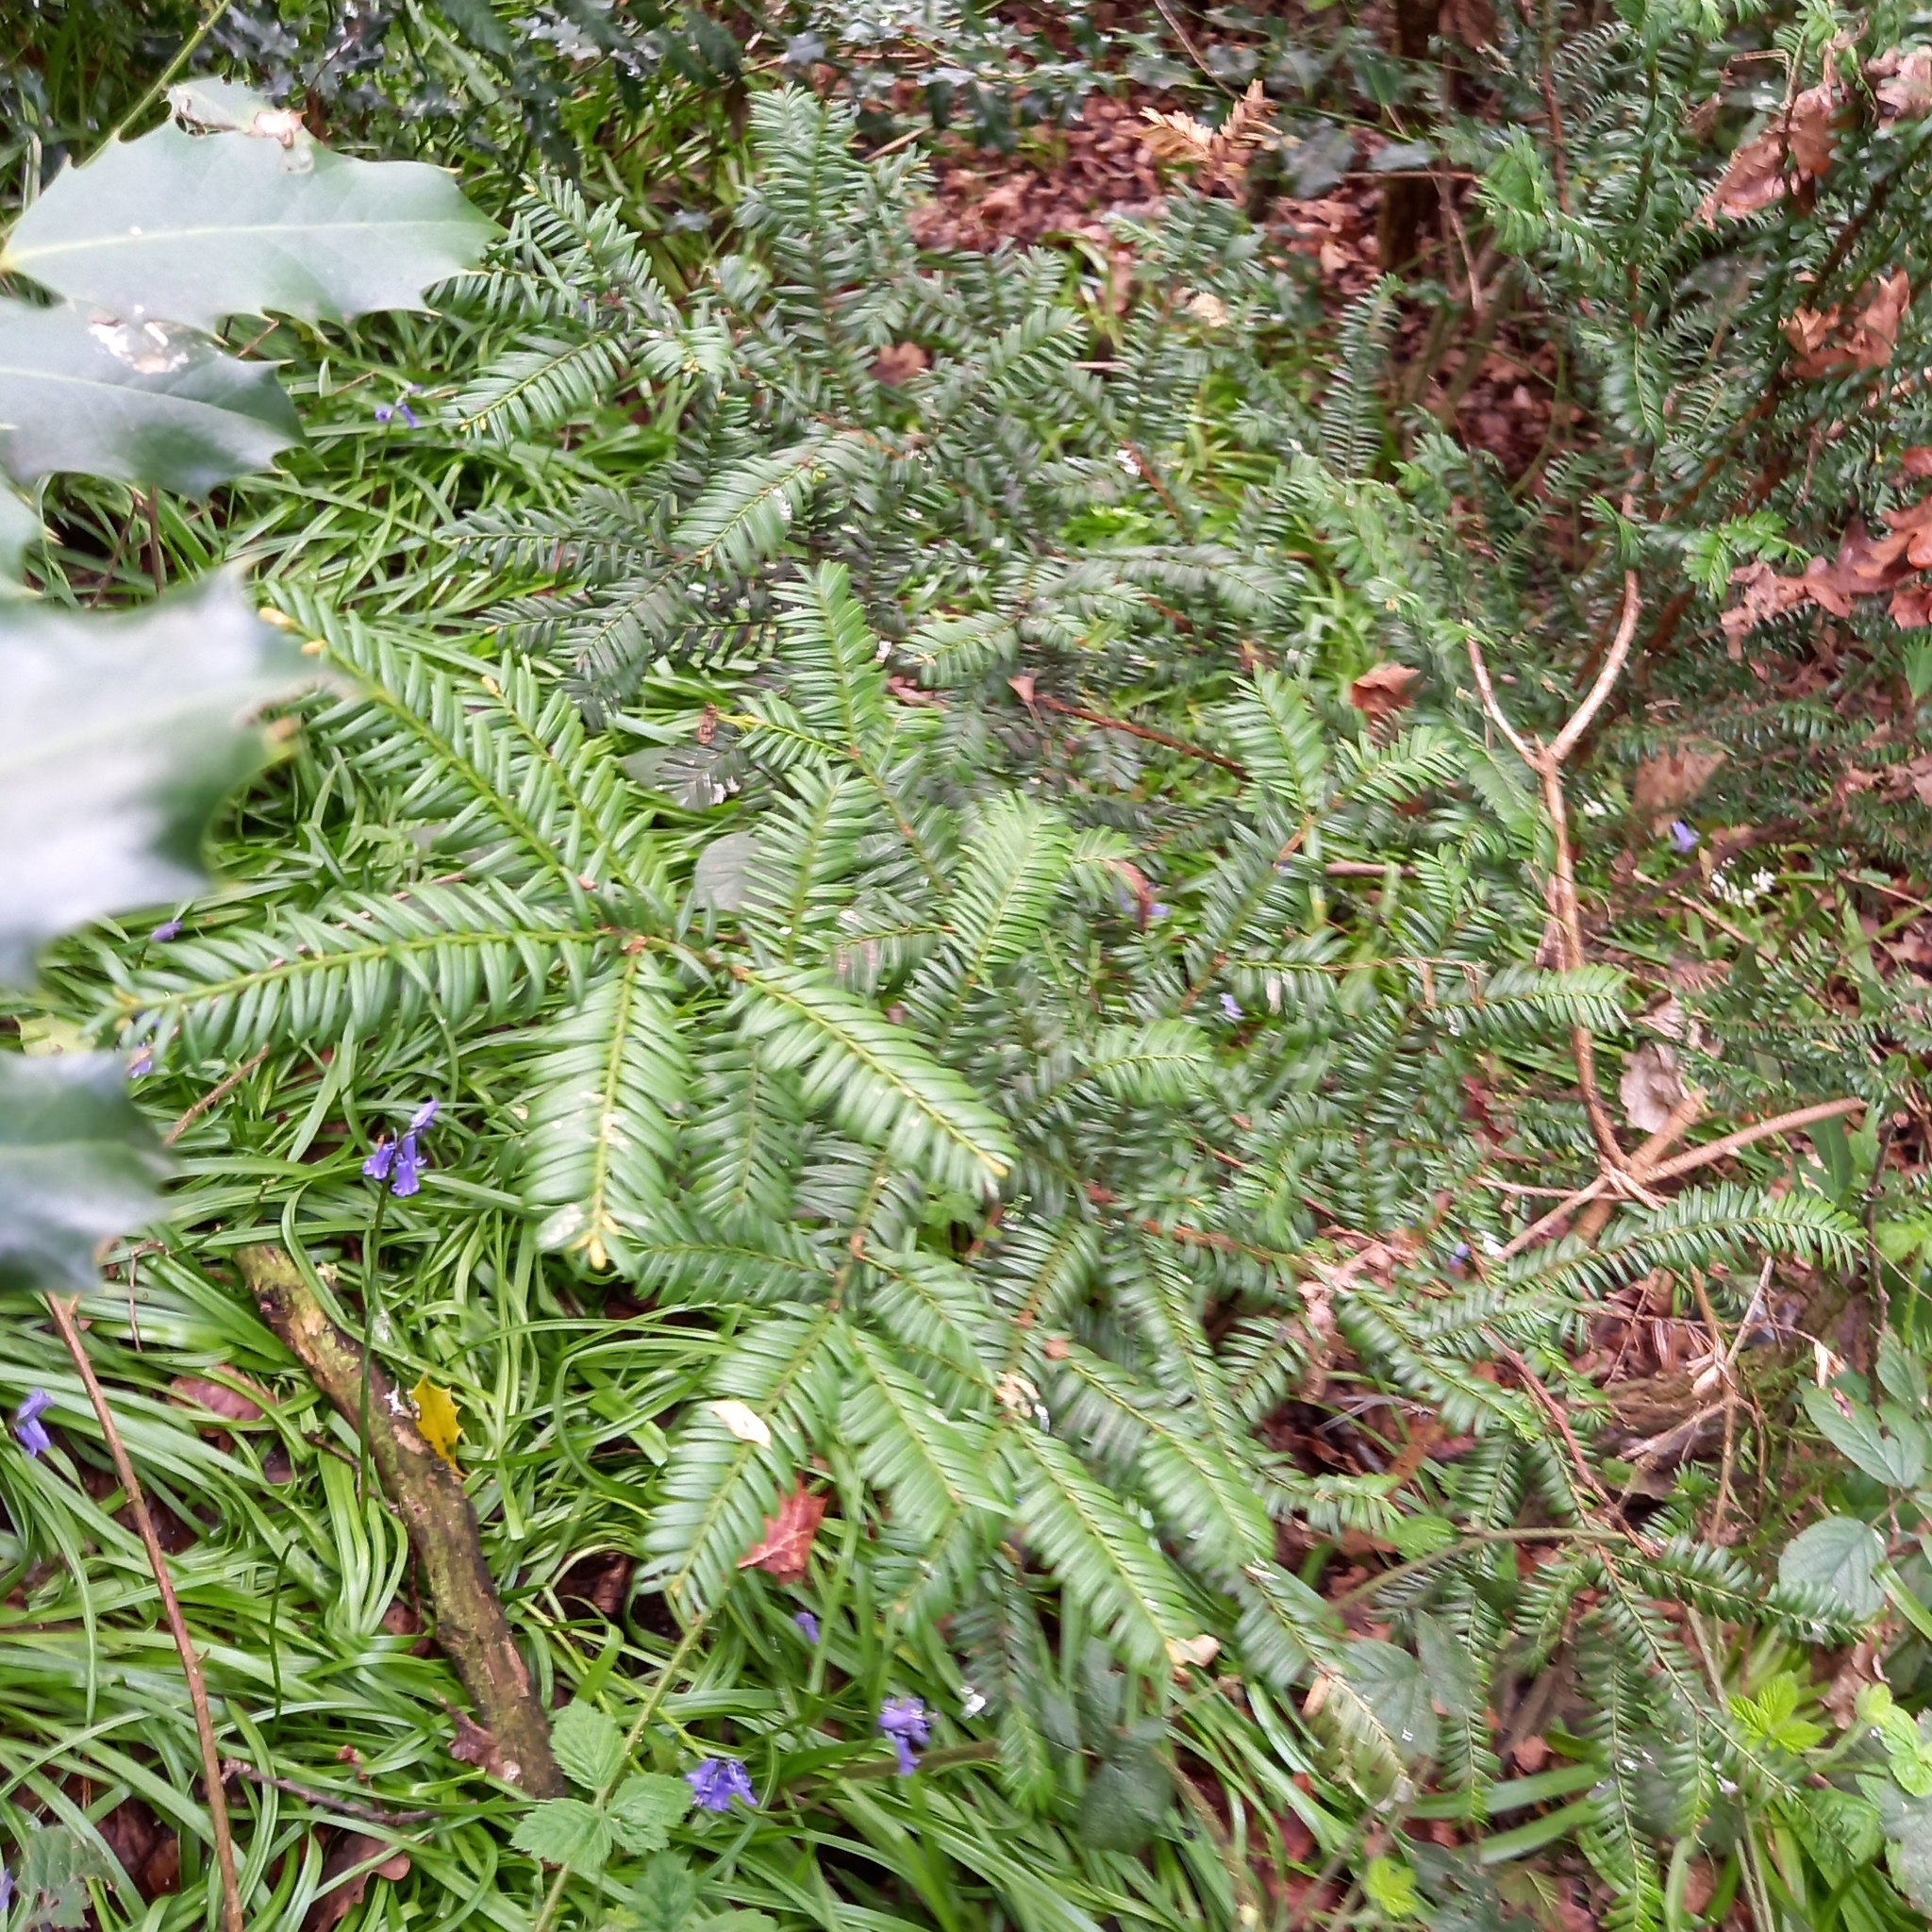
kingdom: Plantae
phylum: Tracheophyta
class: Pinopsida
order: Pinales
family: Taxaceae
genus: Taxus
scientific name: Taxus baccata
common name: Yew
